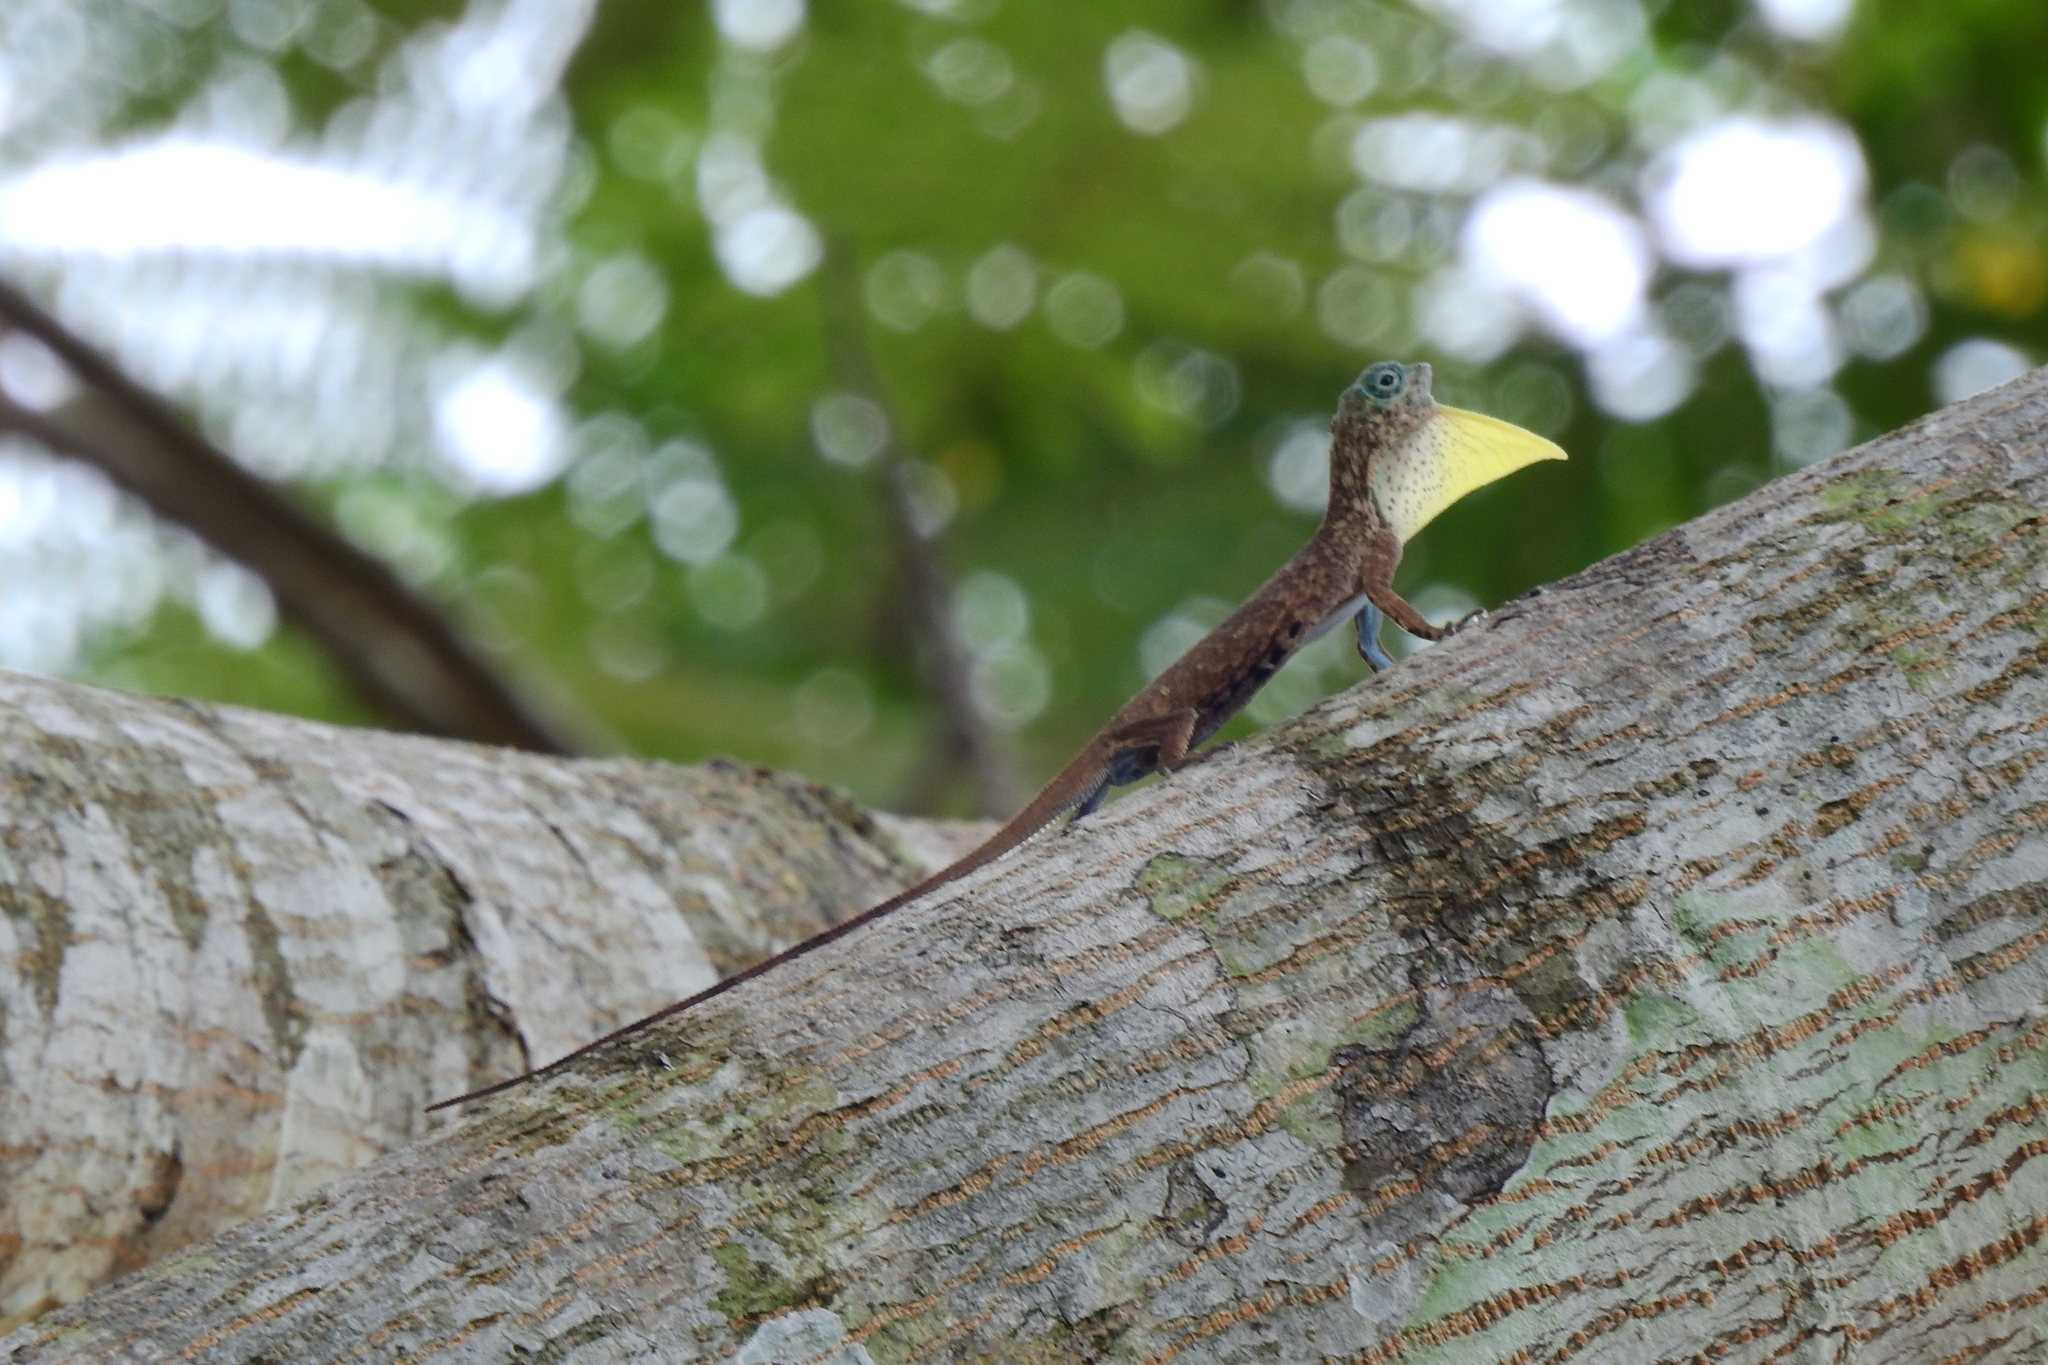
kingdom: Animalia
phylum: Chordata
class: Squamata
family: Agamidae
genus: Draco
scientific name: Draco sumatranus
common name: Common gliding lizard
